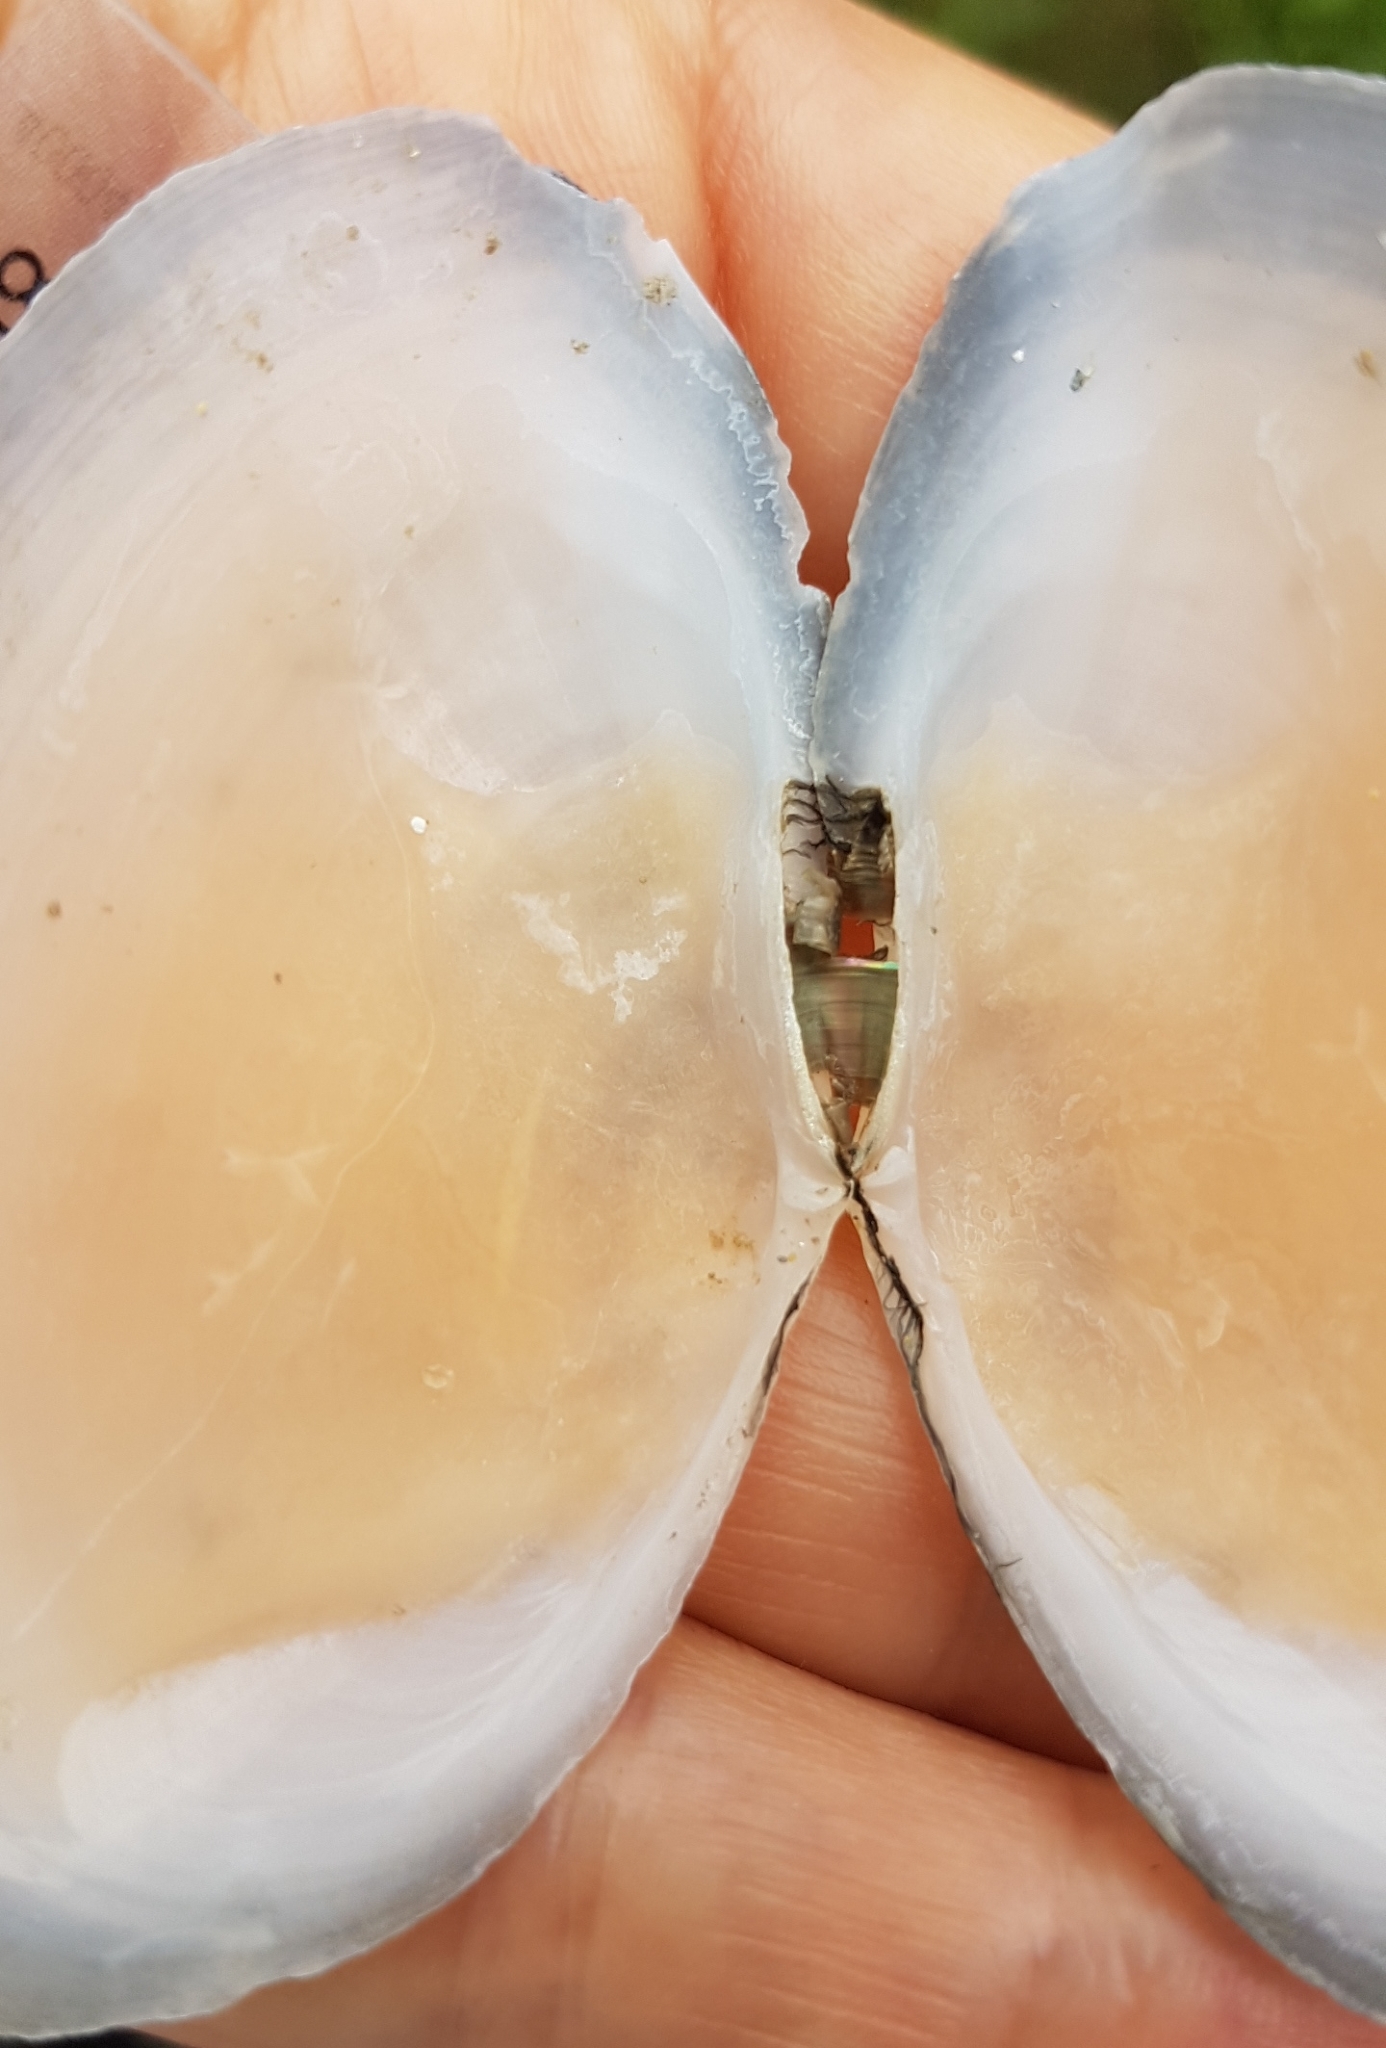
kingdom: Animalia
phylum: Mollusca
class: Bivalvia
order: Cardiida
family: Tellinidae
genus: Peronaea
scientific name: Peronaea planata
